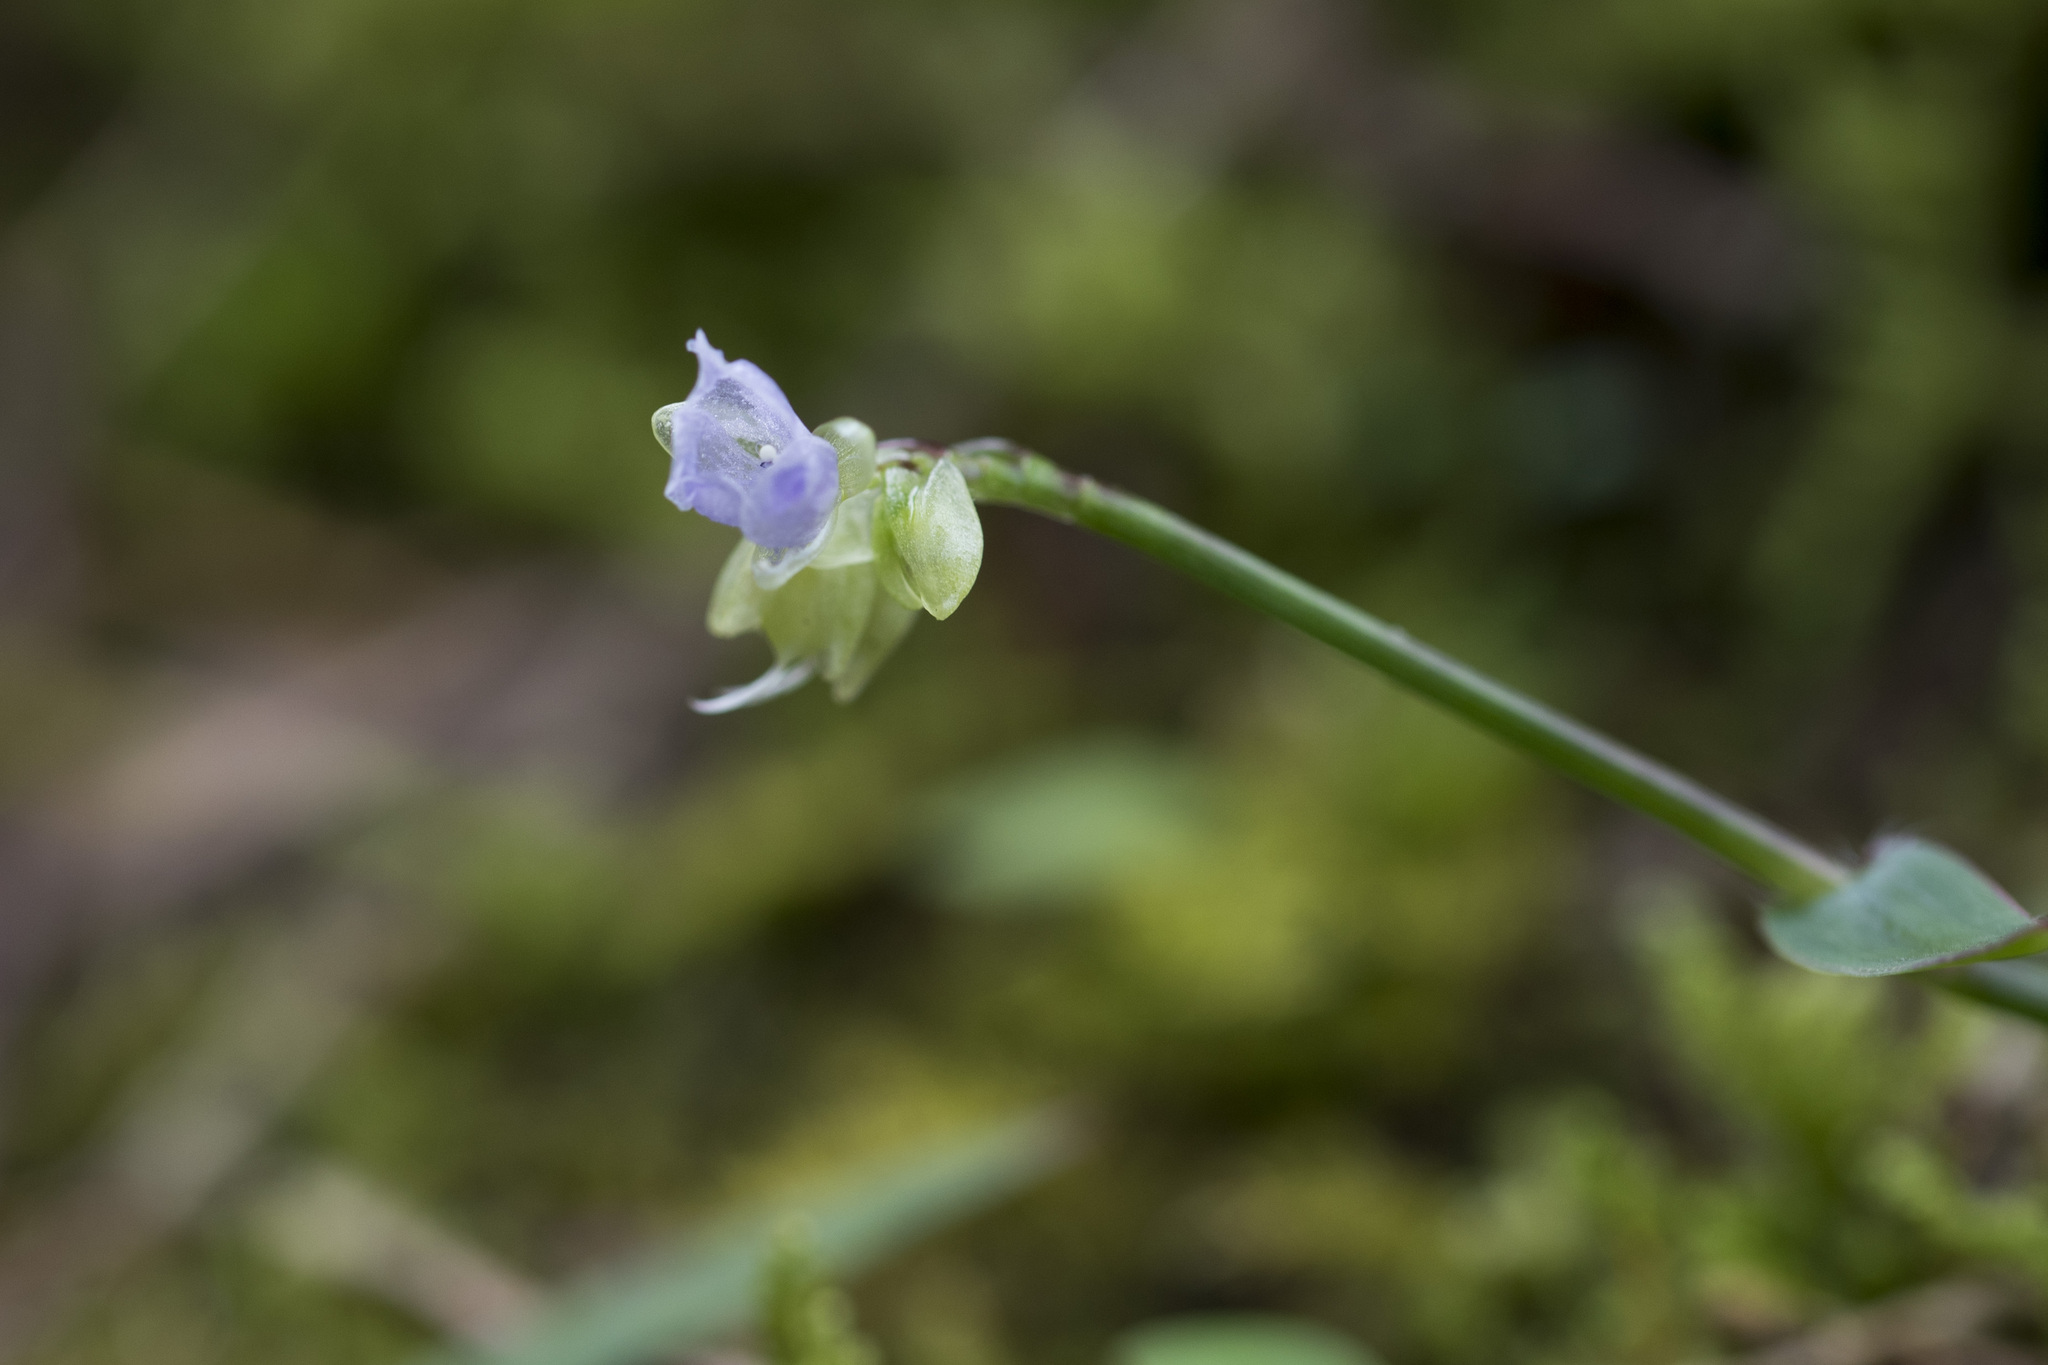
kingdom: Plantae
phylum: Tracheophyta
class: Liliopsida
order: Commelinales
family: Commelinaceae
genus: Murdannia
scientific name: Murdannia loriformis
